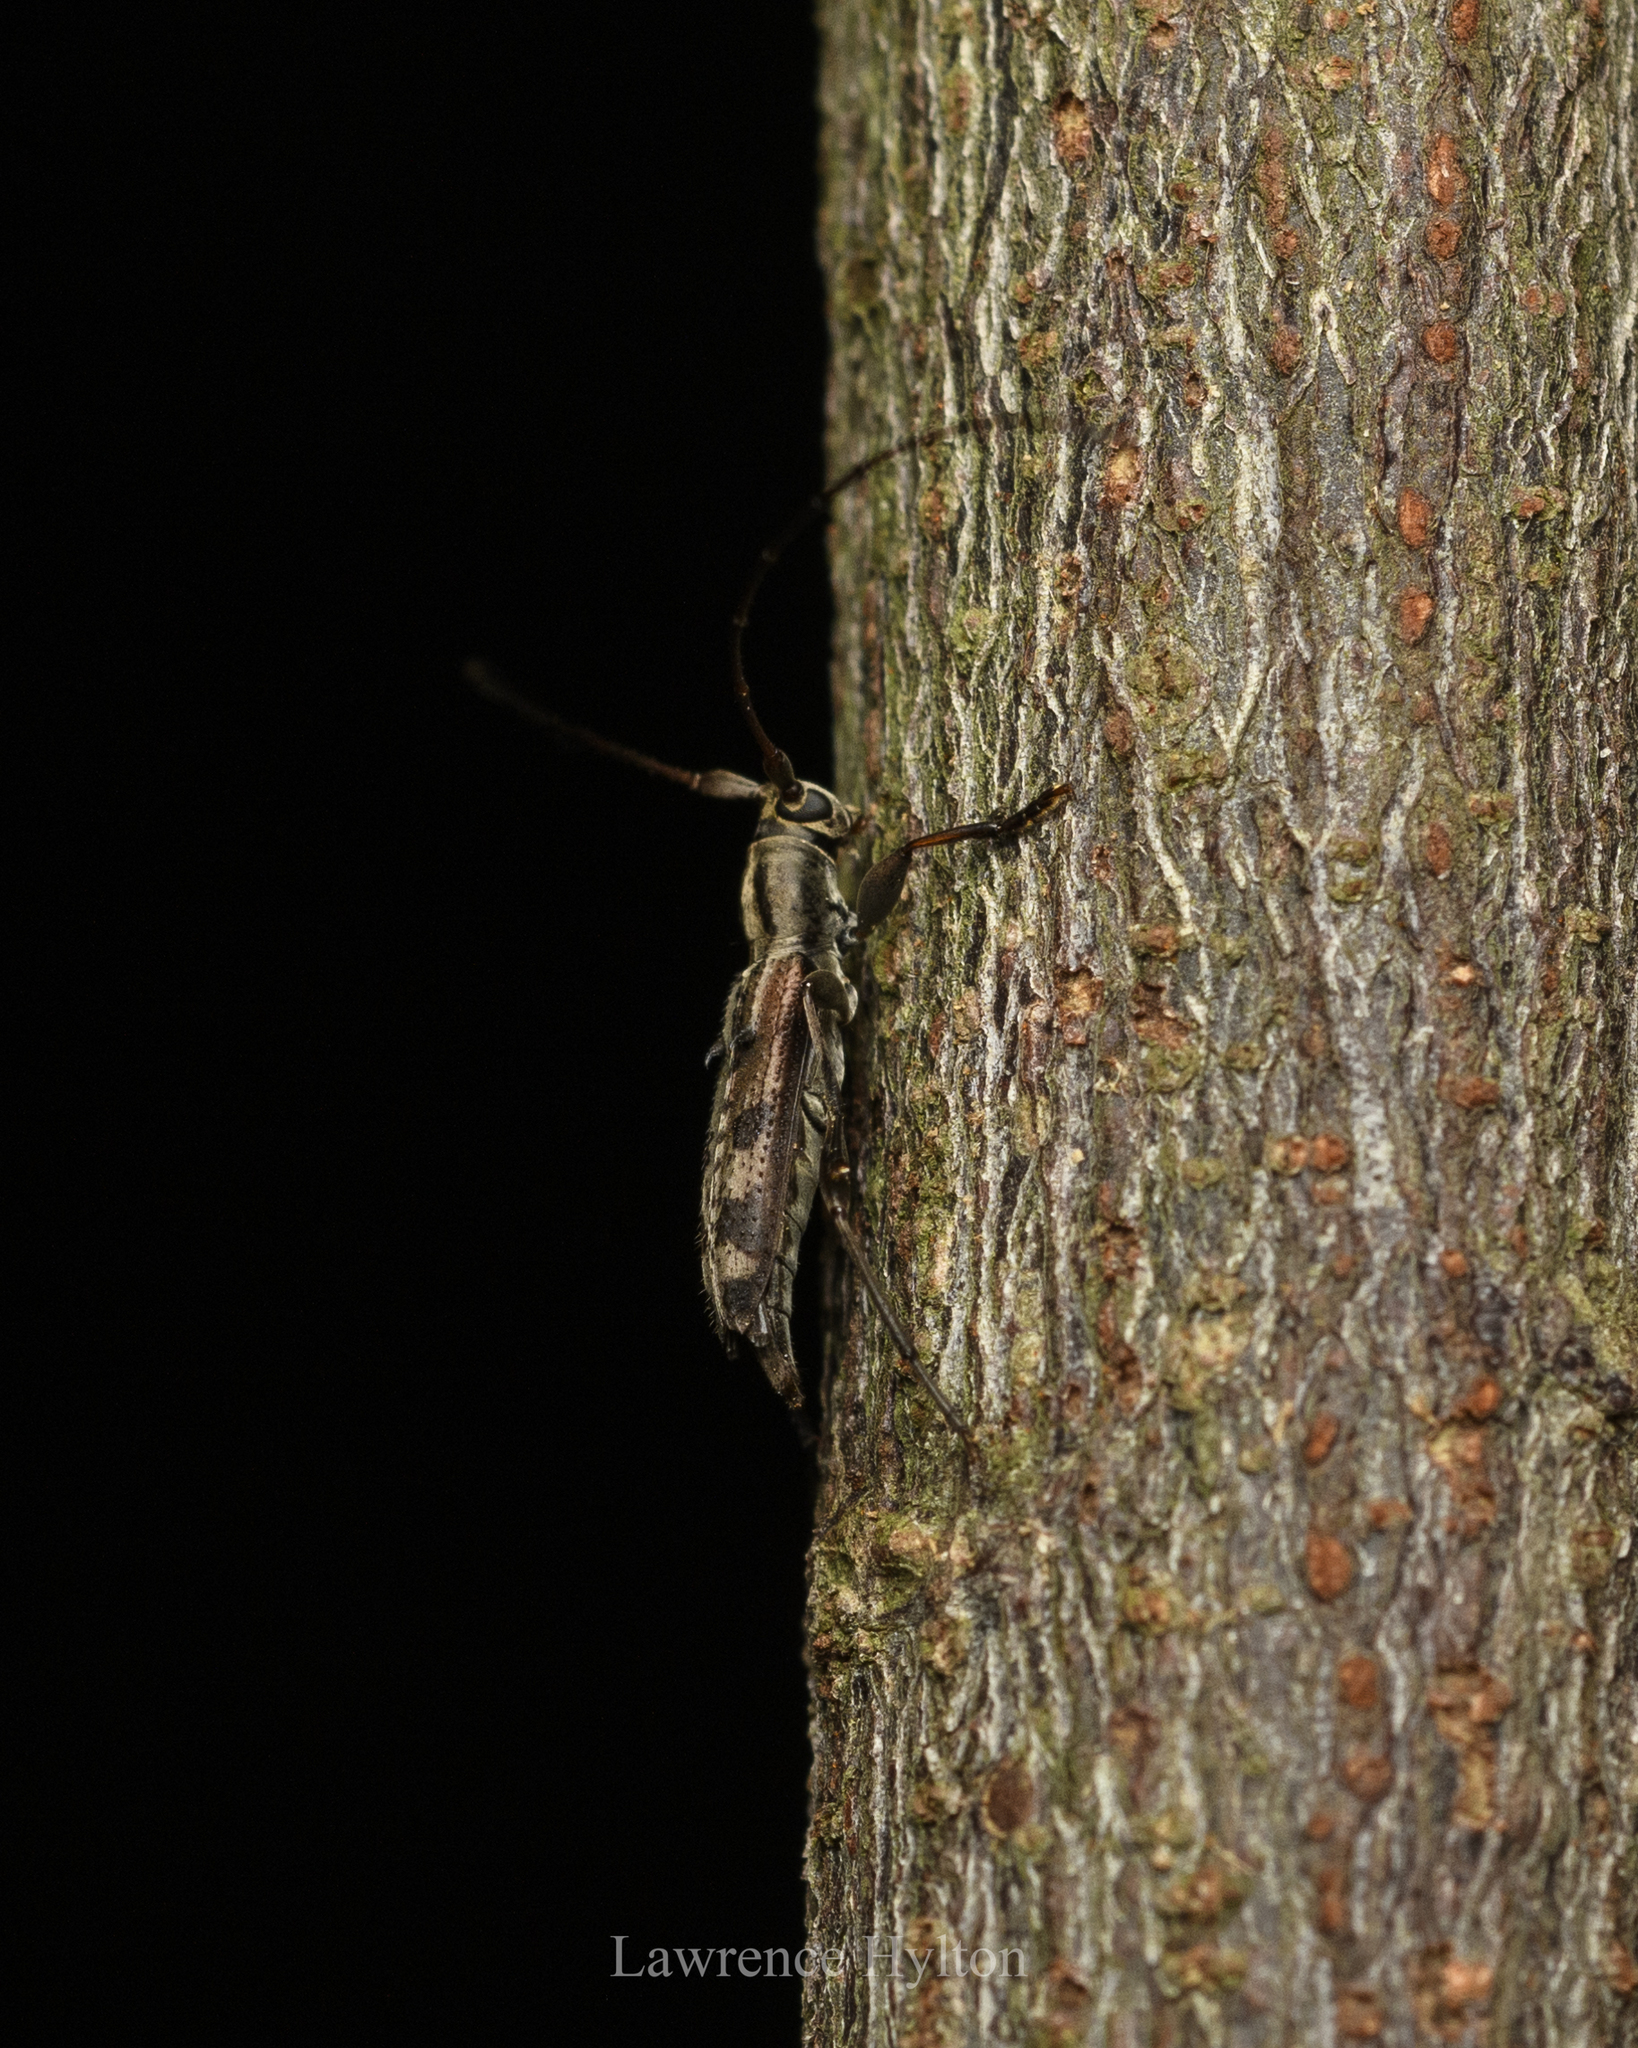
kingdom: Animalia
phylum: Arthropoda
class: Insecta
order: Coleoptera
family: Cerambycidae
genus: Rondibilis
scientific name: Rondibilis lineaticollis
